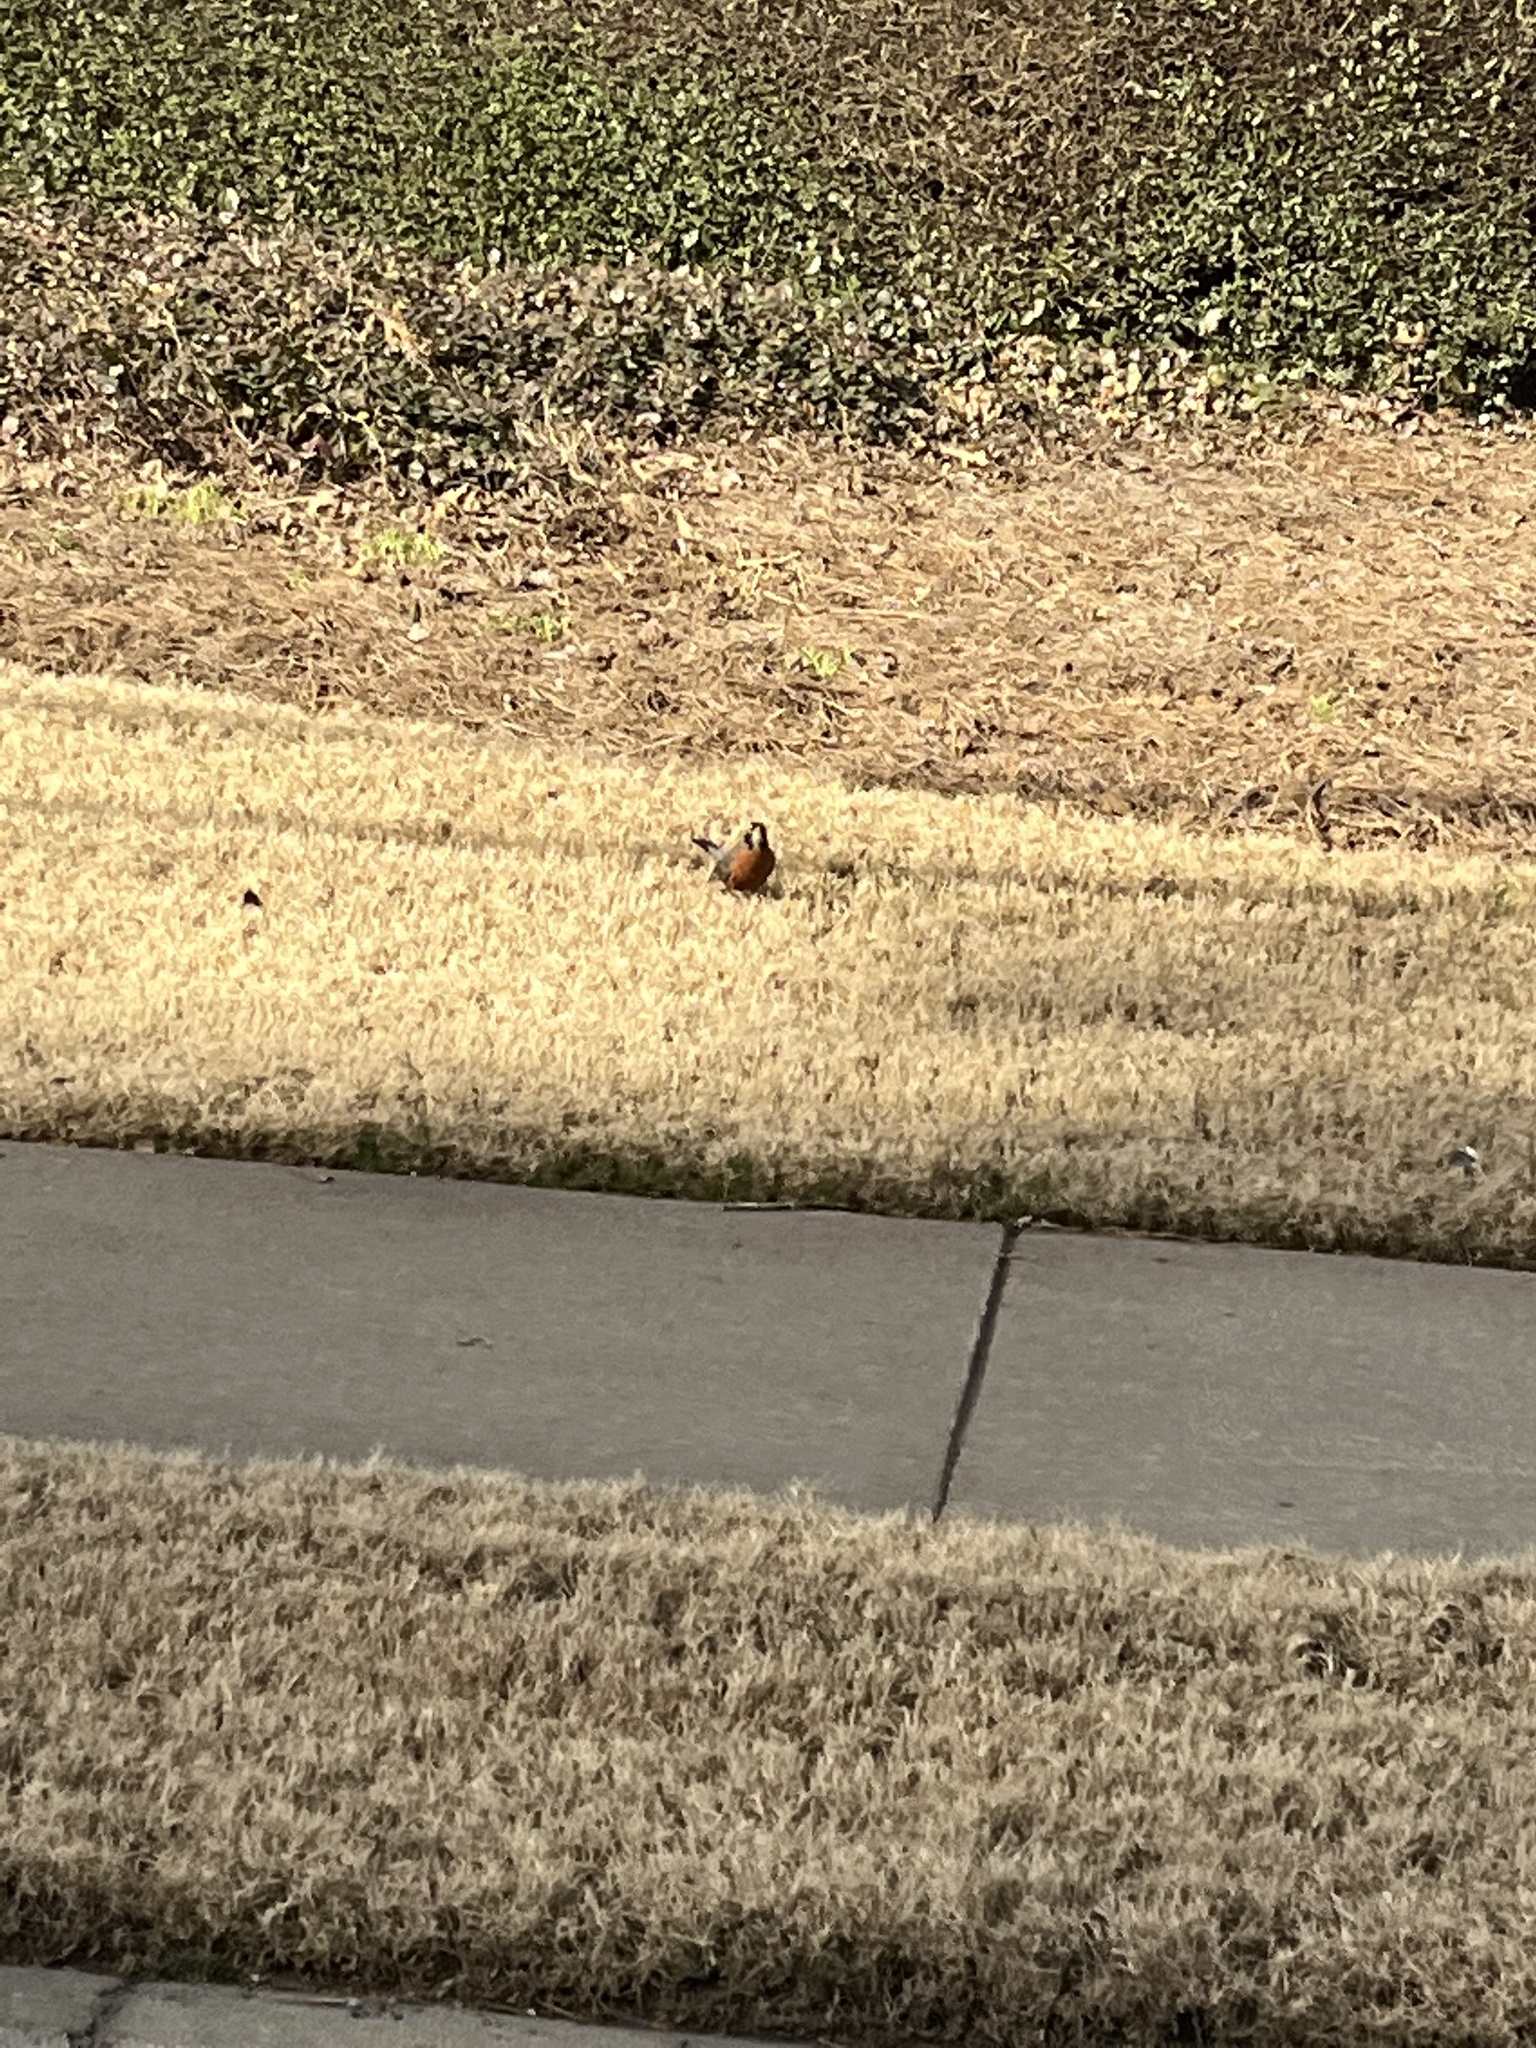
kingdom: Animalia
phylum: Chordata
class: Aves
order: Passeriformes
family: Turdidae
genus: Turdus
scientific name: Turdus migratorius
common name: American robin
